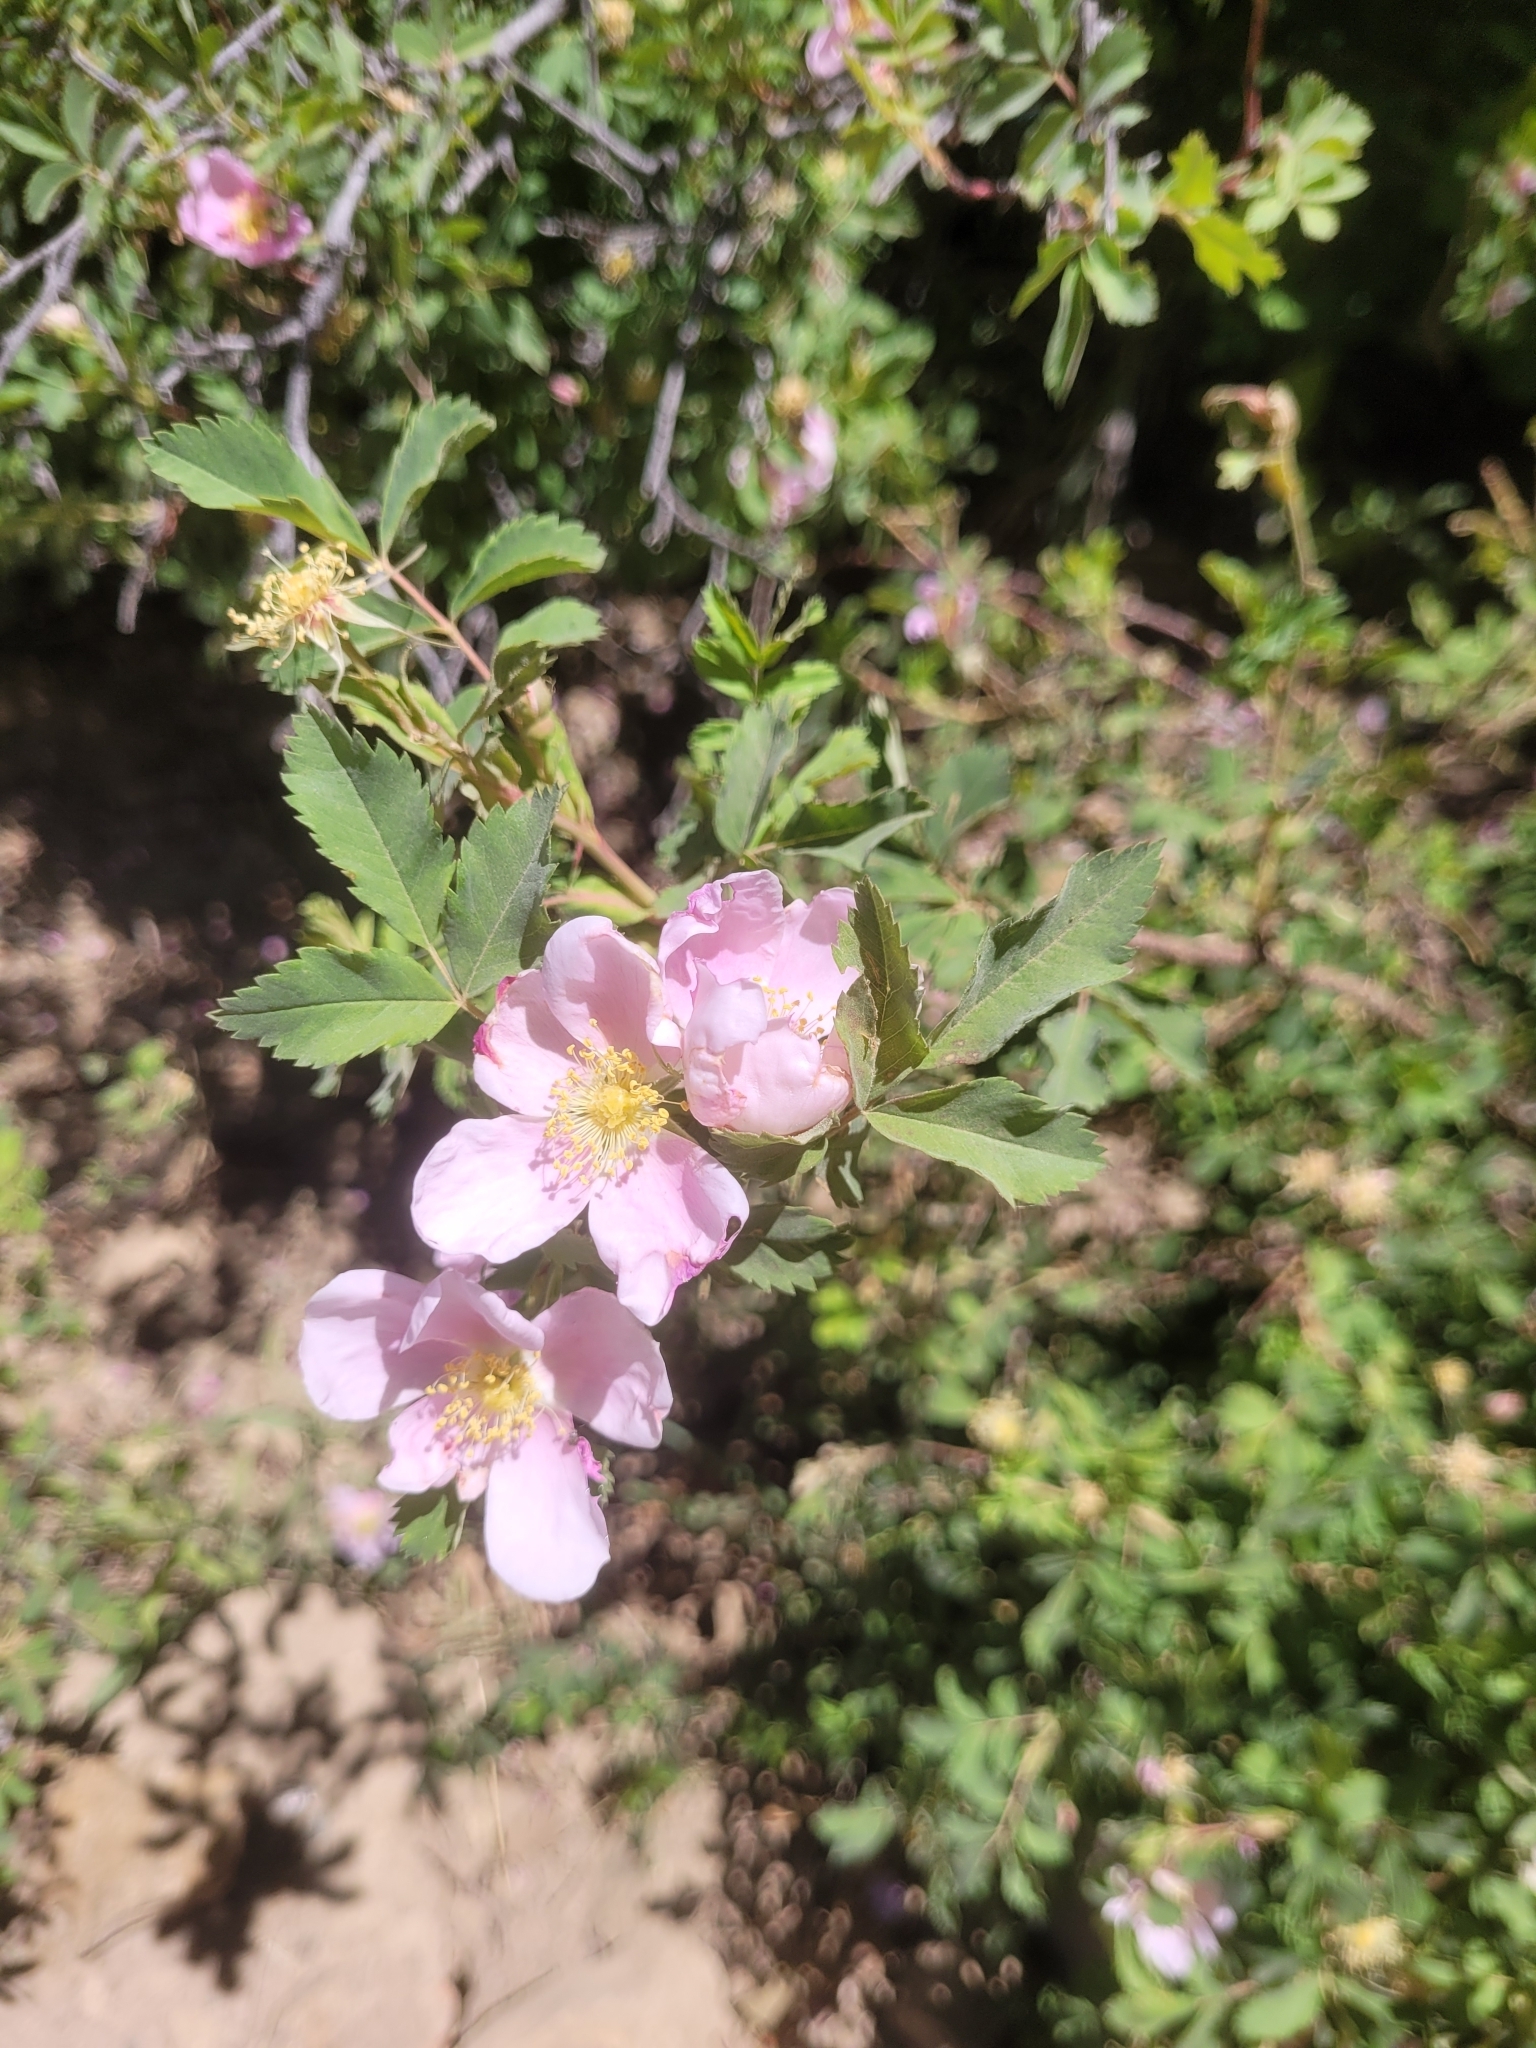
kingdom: Plantae
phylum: Tracheophyta
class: Magnoliopsida
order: Rosales
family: Rosaceae
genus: Rosa
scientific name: Rosa woodsii
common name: Woods's rose
